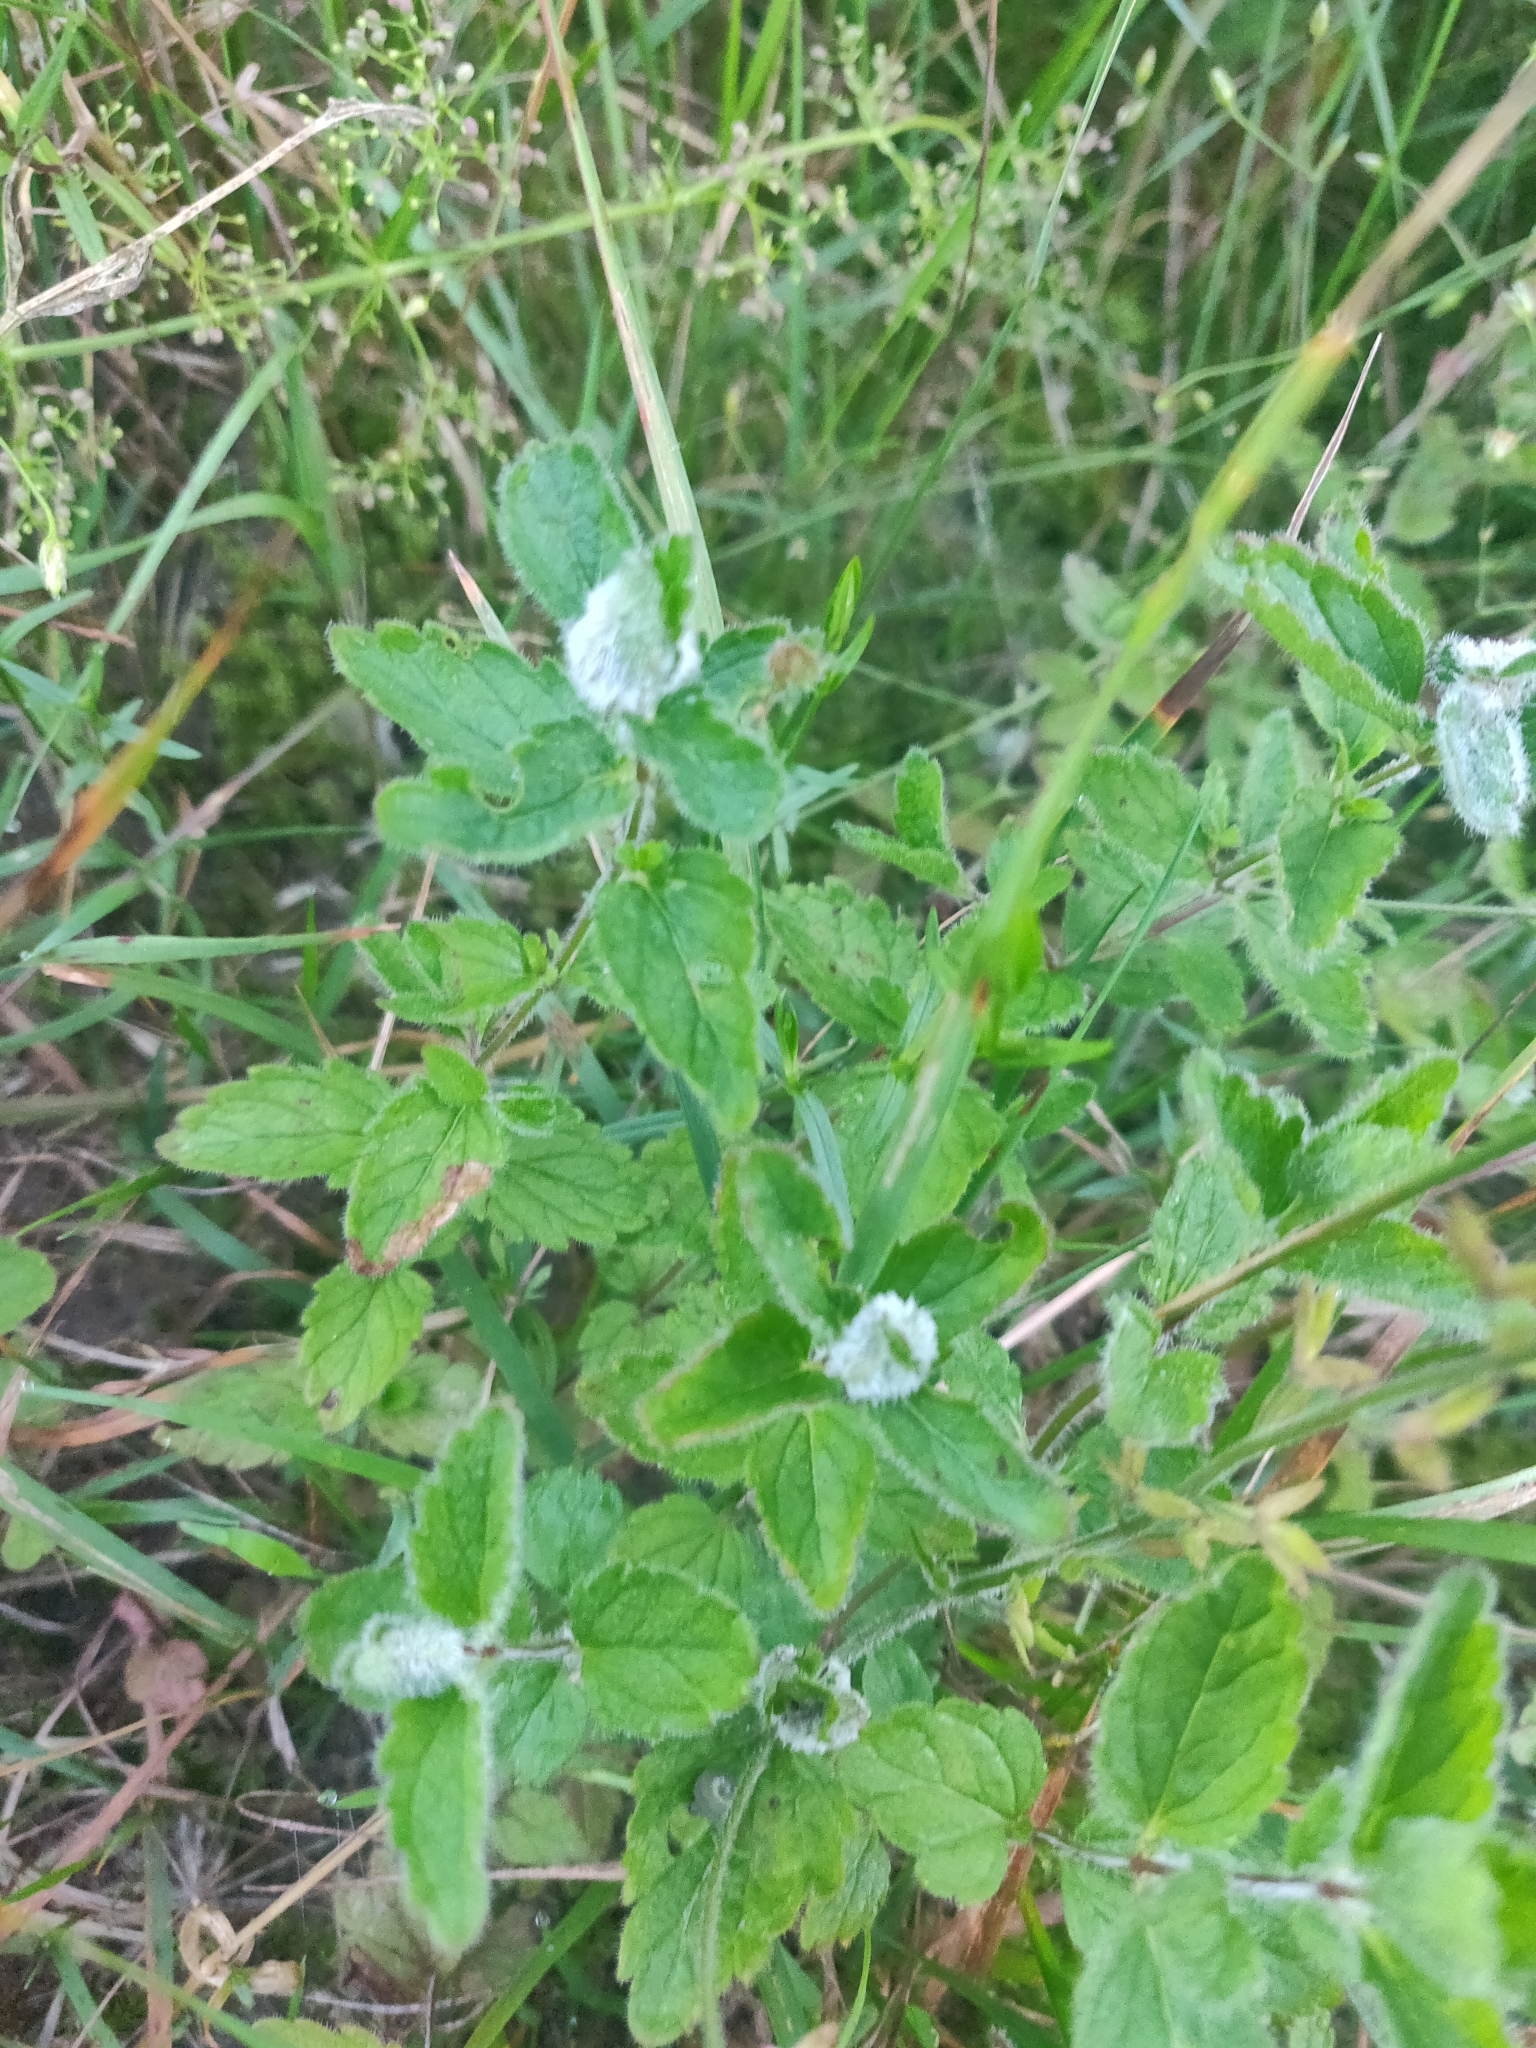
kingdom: Plantae
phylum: Tracheophyta
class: Magnoliopsida
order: Lamiales
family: Plantaginaceae
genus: Veronica
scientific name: Veronica chamaedrys
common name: Germander speedwell
